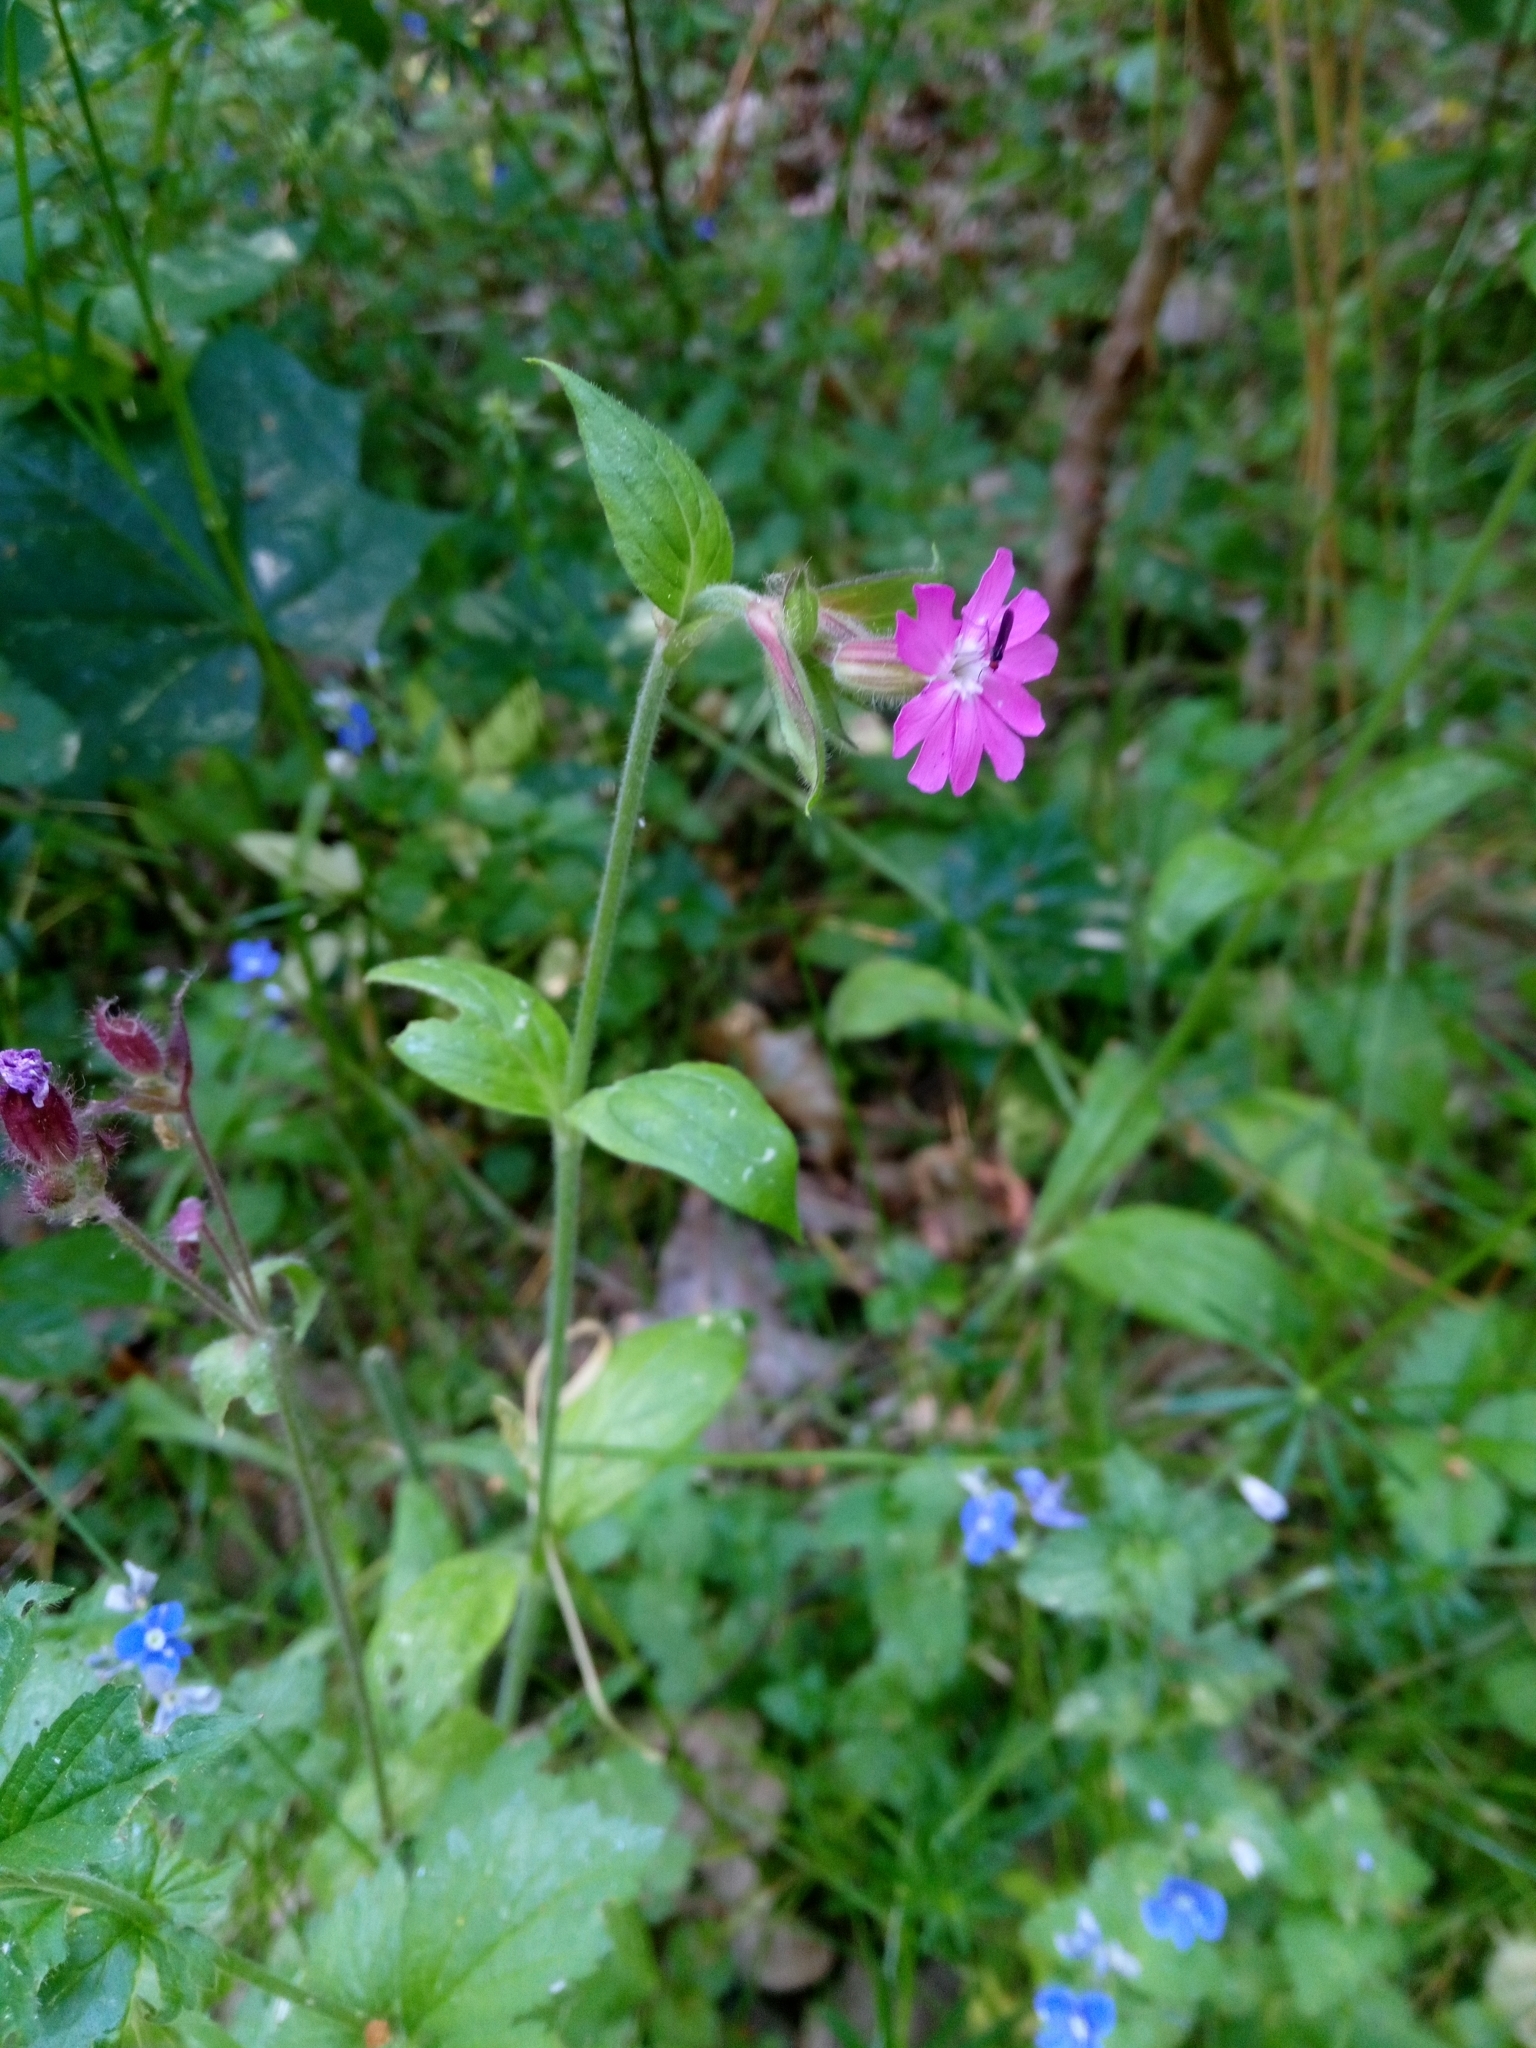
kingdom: Plantae
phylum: Tracheophyta
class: Magnoliopsida
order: Caryophyllales
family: Caryophyllaceae
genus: Silene
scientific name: Silene dioica
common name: Red campion
